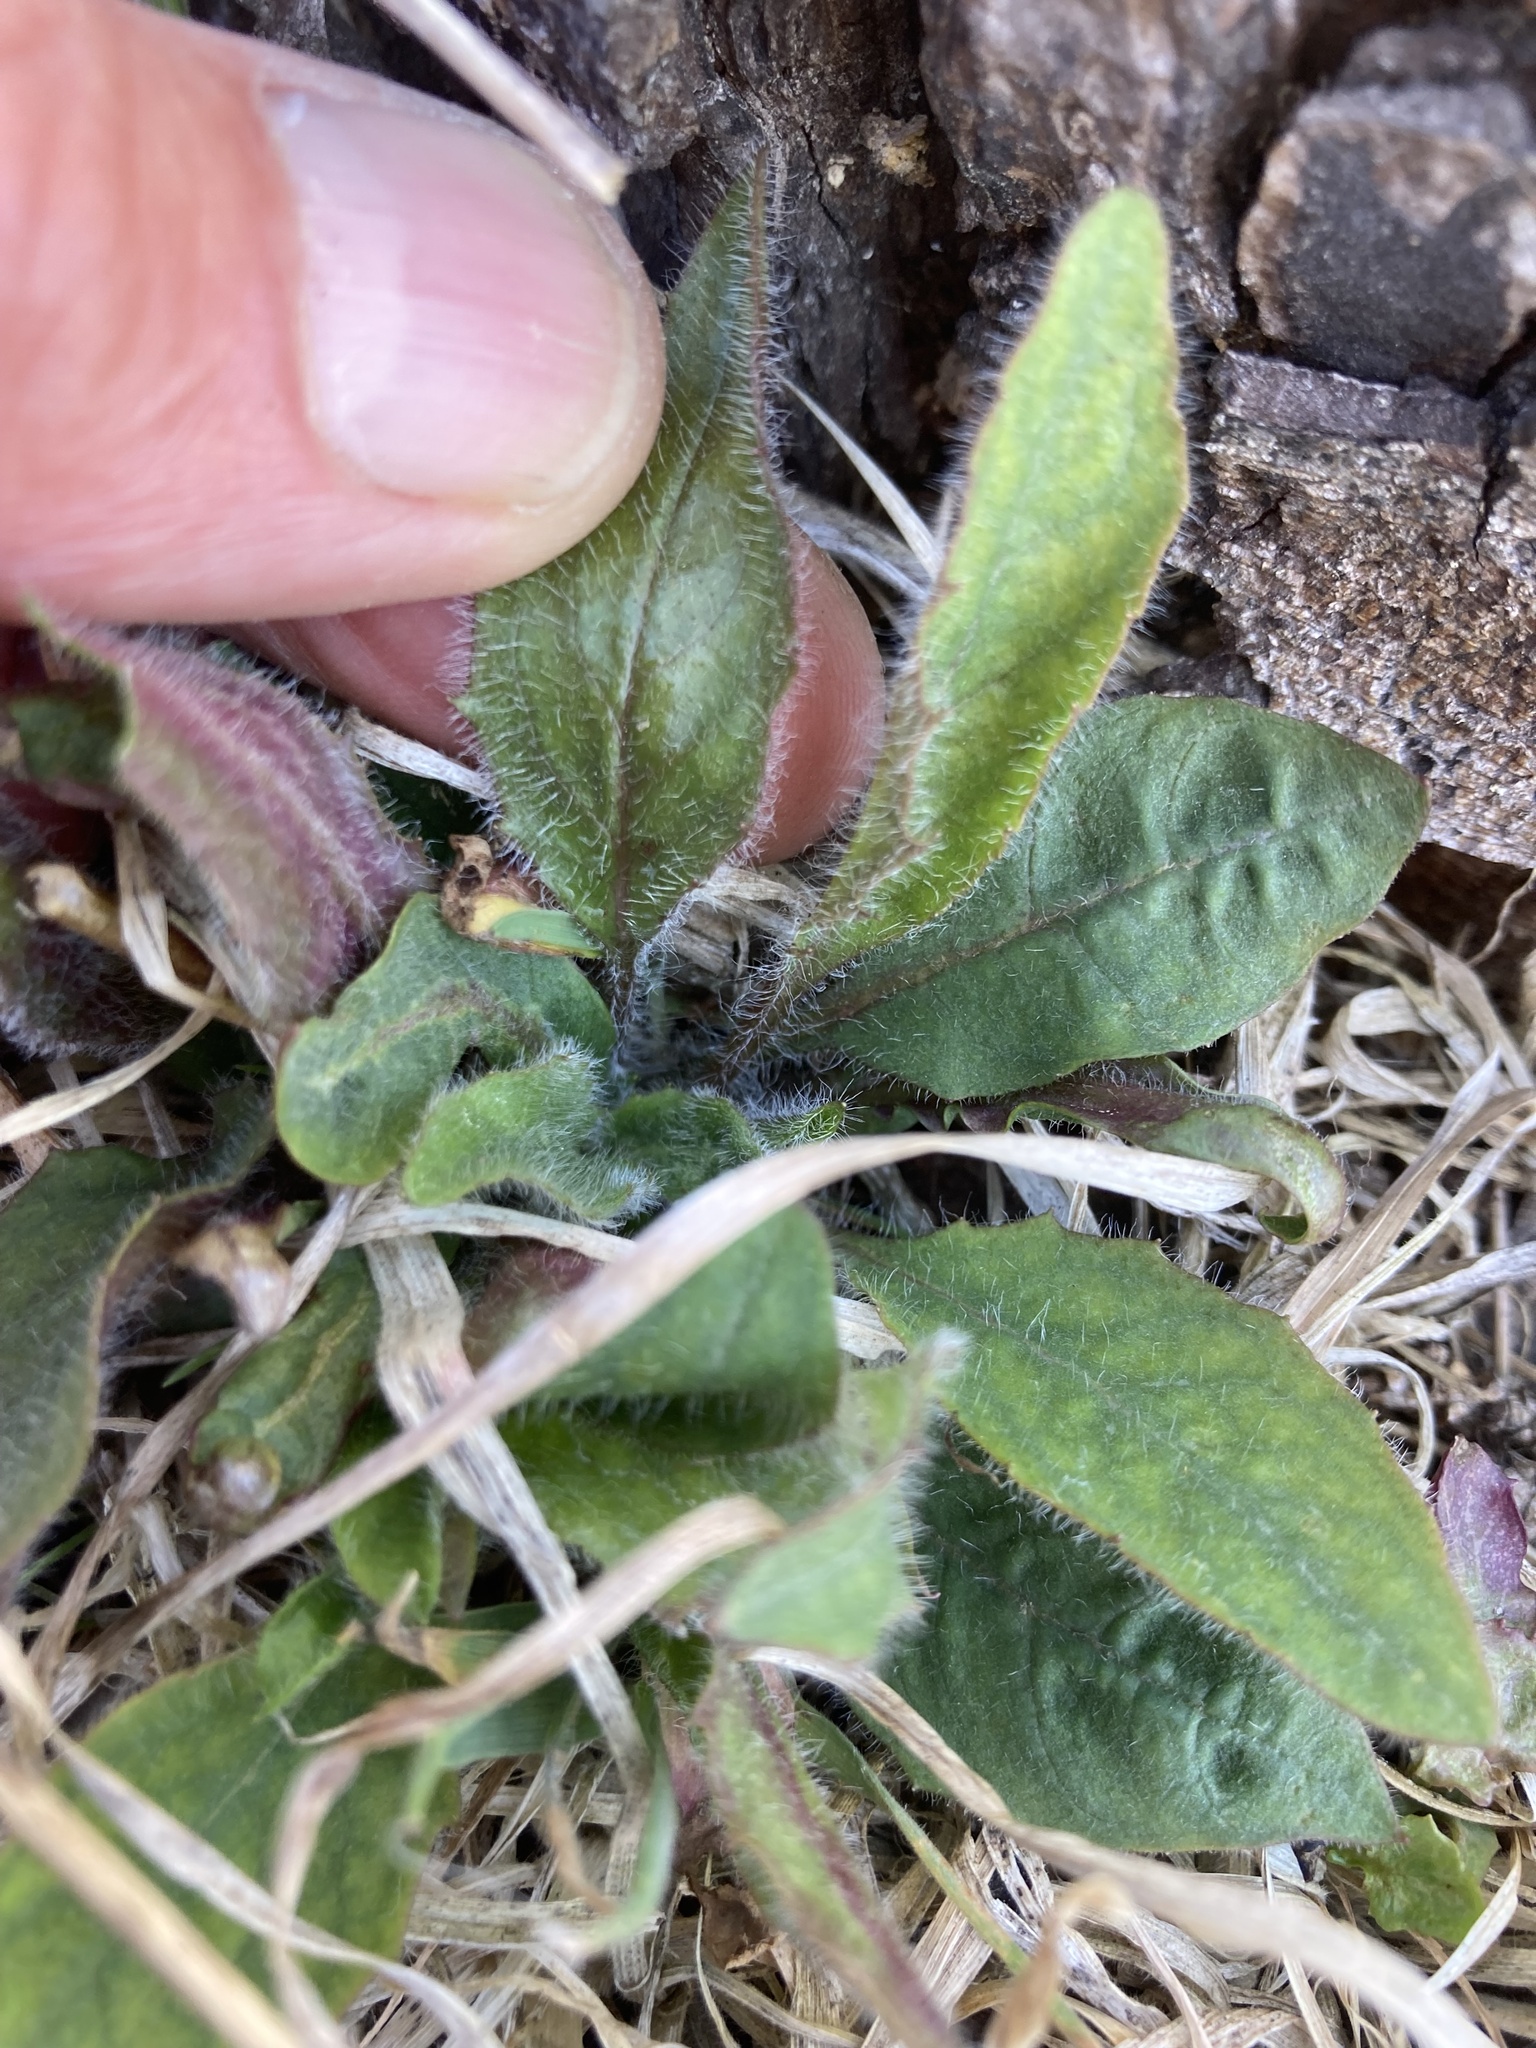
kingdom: Plantae
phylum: Tracheophyta
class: Magnoliopsida
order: Asterales
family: Asteraceae
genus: Hieracium
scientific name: Hieracium lepidulum
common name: Irregular-toothed hawkweed
